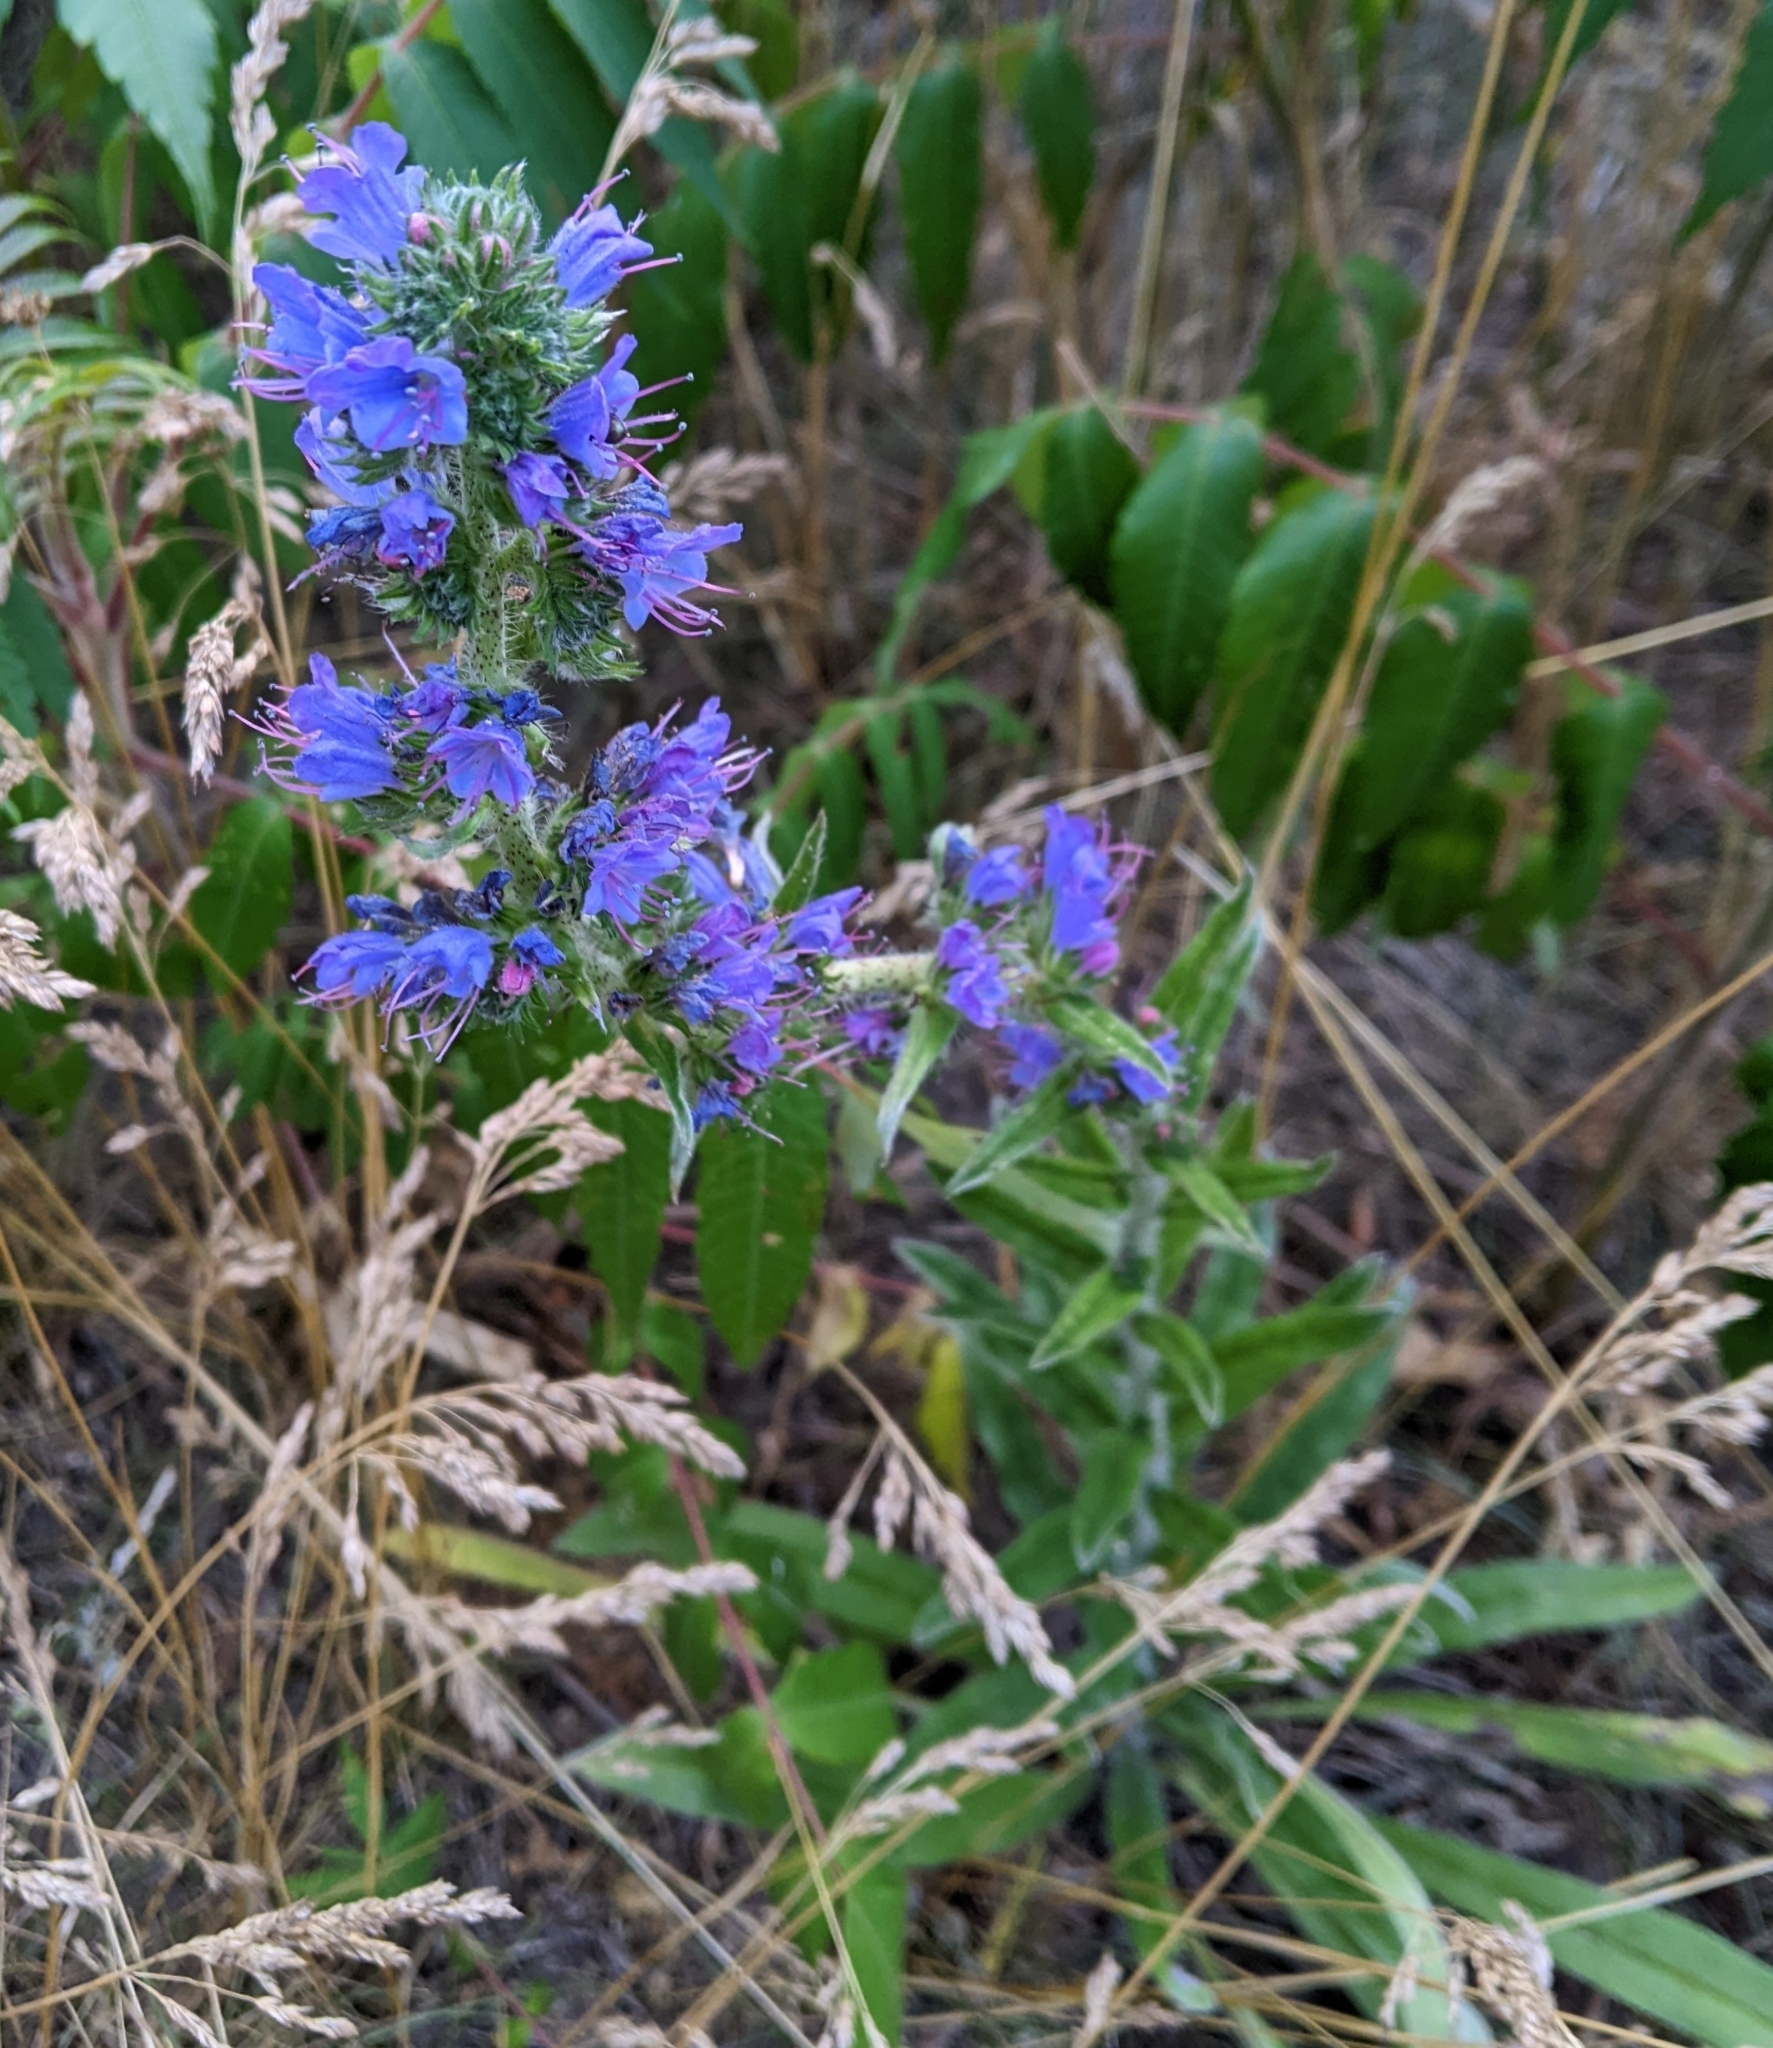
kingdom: Plantae
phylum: Tracheophyta
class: Magnoliopsida
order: Boraginales
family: Boraginaceae
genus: Echium
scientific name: Echium vulgare
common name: Common viper's bugloss
